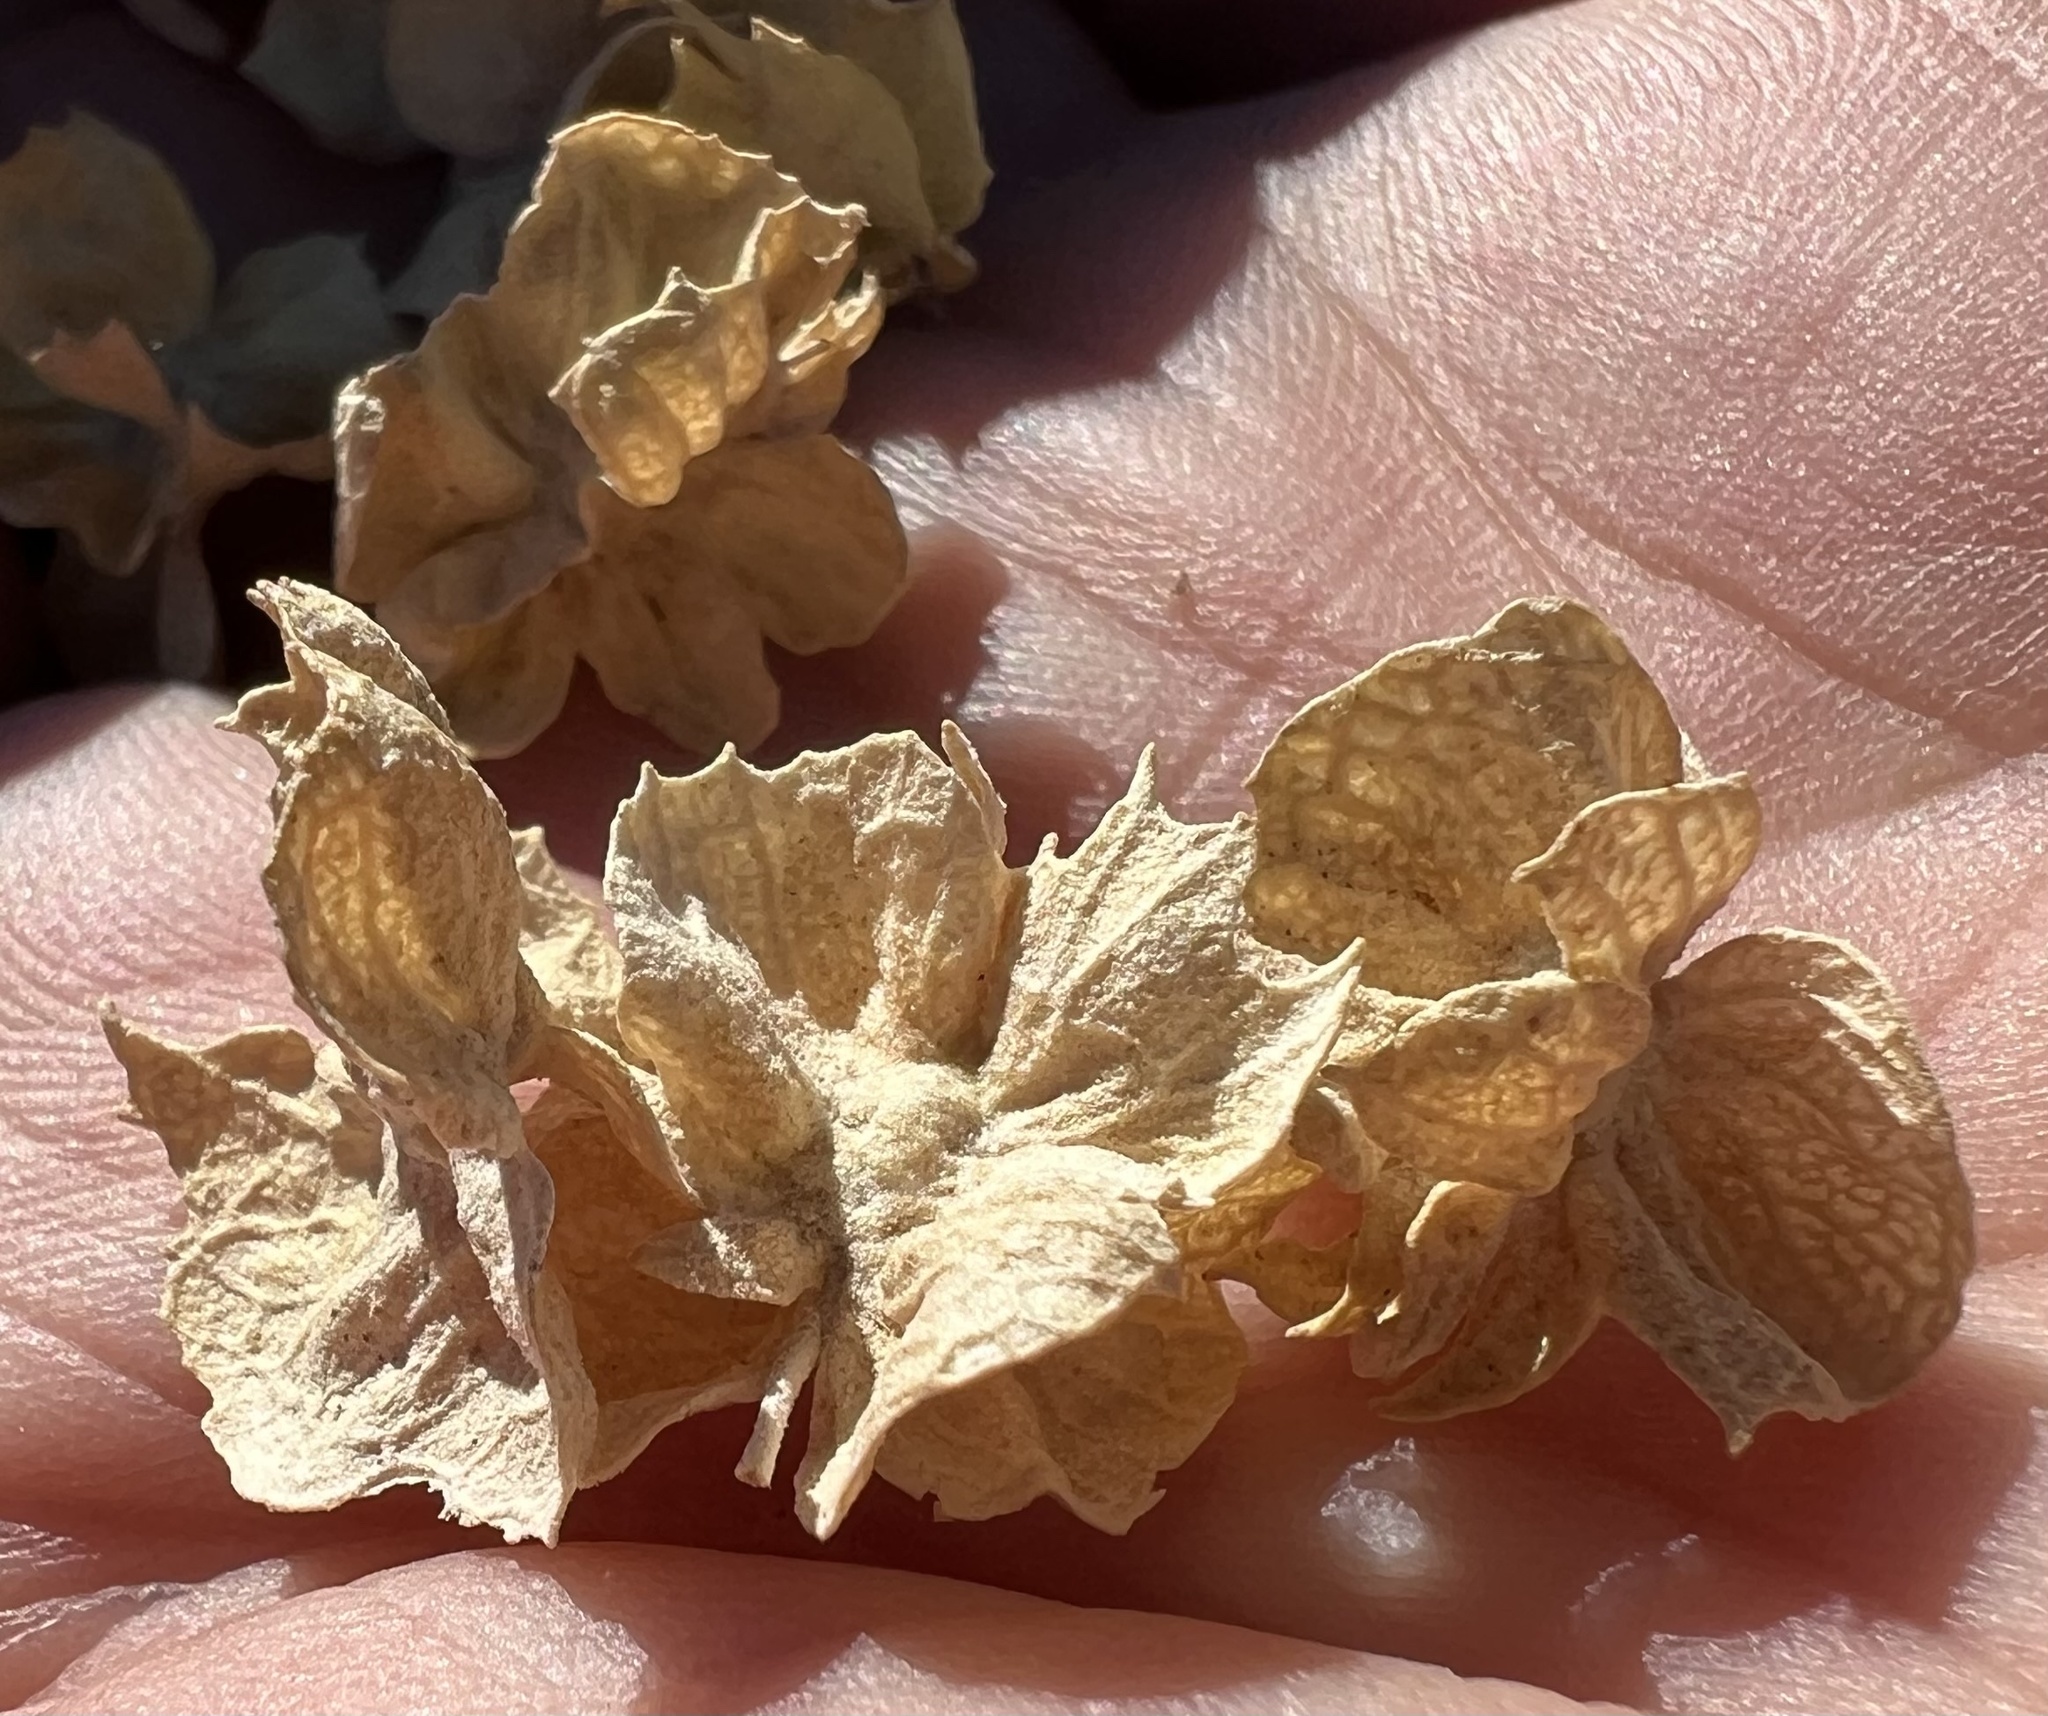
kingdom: Plantae
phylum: Tracheophyta
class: Magnoliopsida
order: Caryophyllales
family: Amaranthaceae
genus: Atriplex
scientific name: Atriplex canescens
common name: Four-wing saltbush
